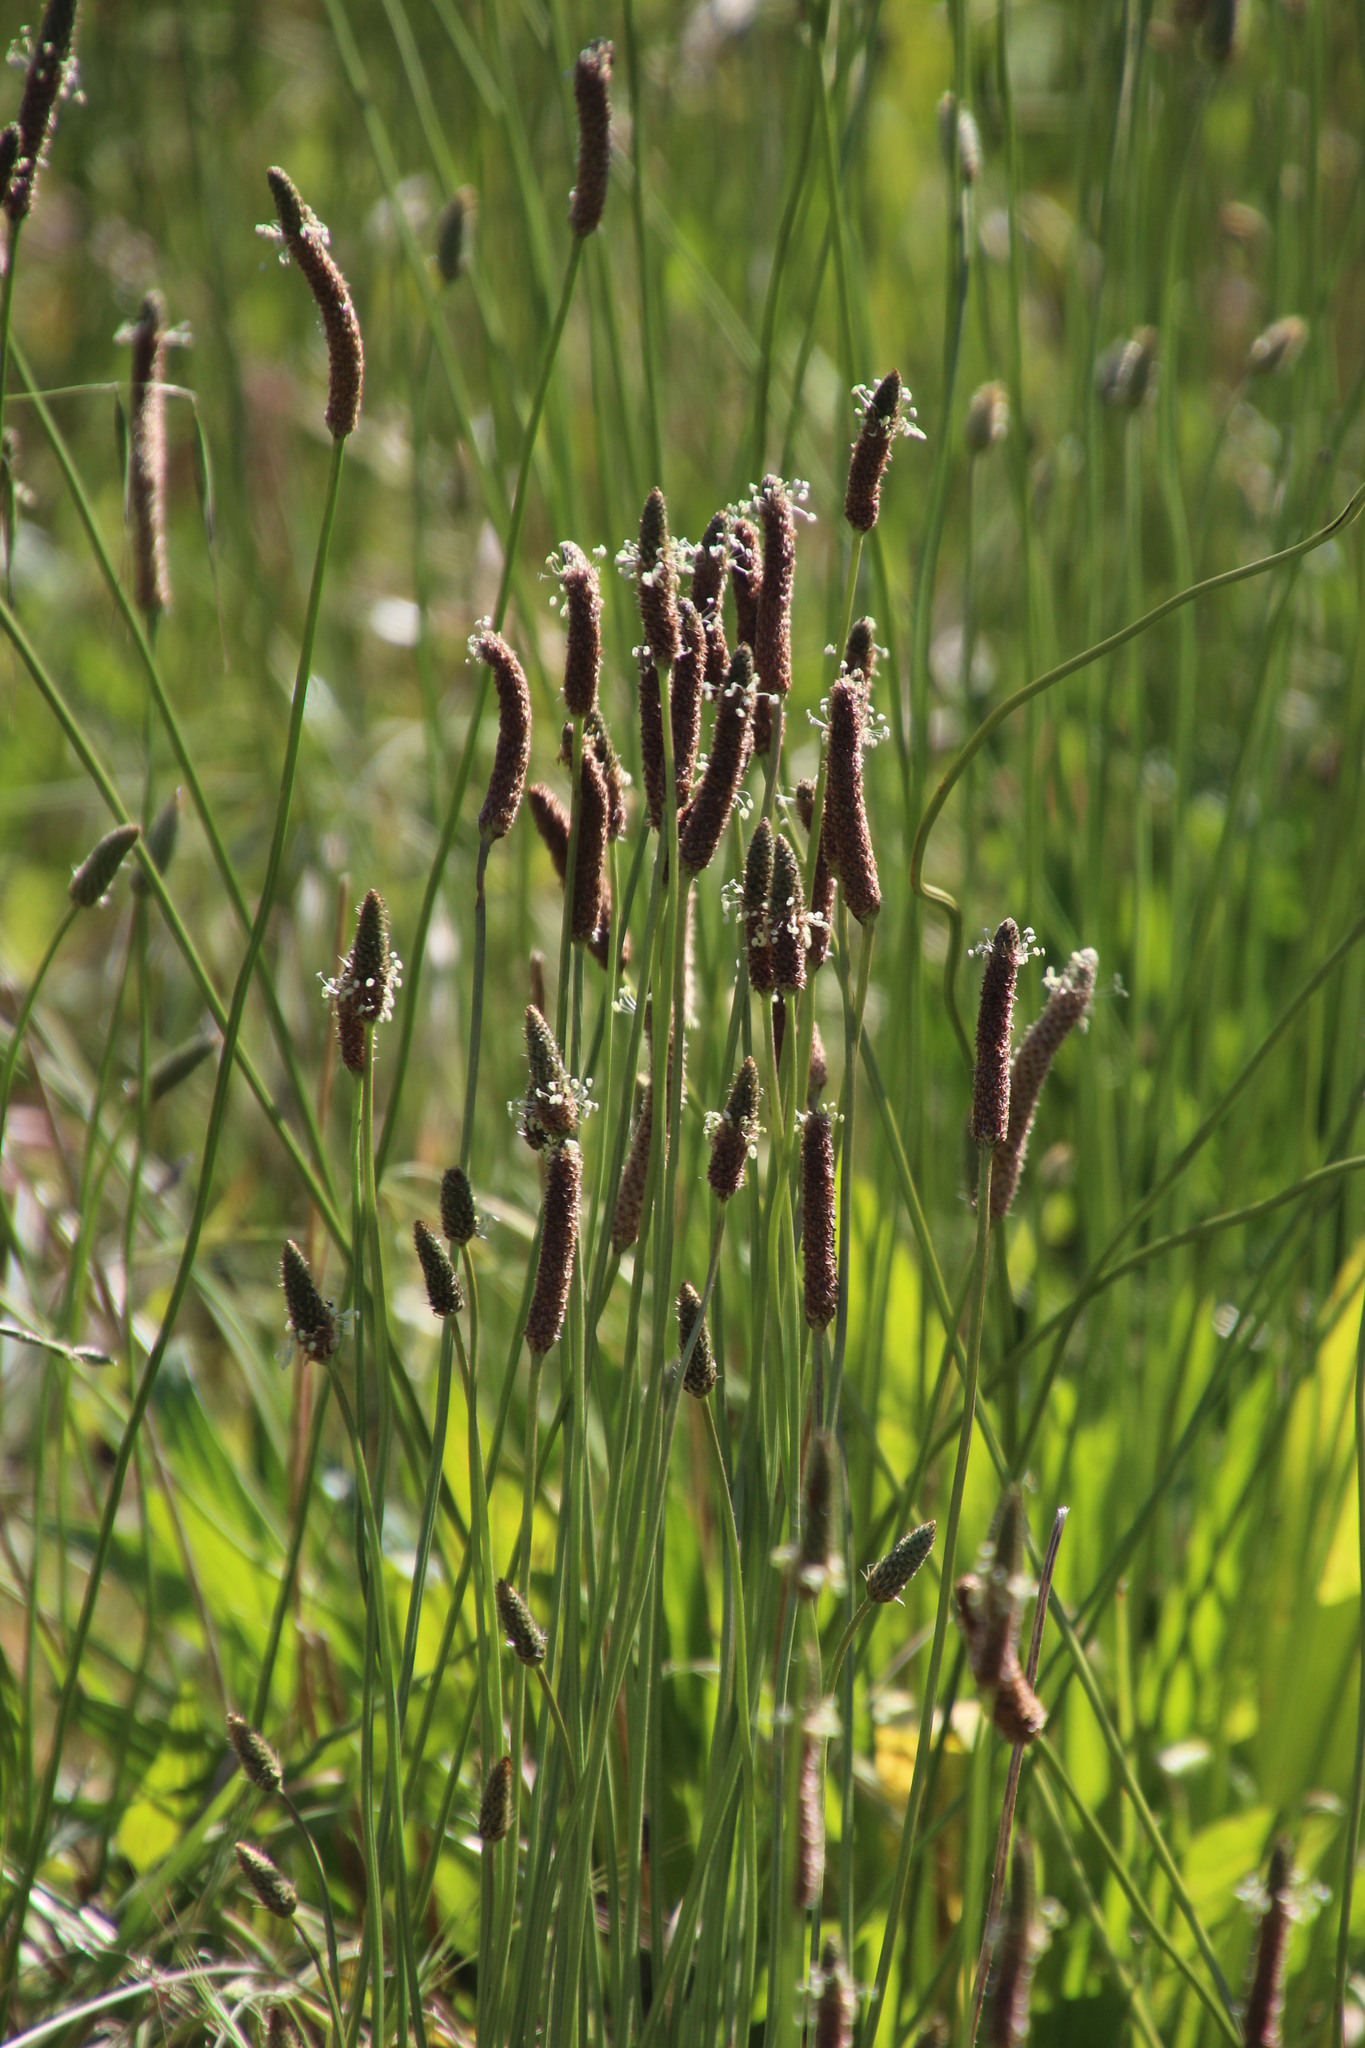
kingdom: Plantae
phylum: Tracheophyta
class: Magnoliopsida
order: Lamiales
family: Plantaginaceae
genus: Plantago
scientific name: Plantago lanceolata
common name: Ribwort plantain
